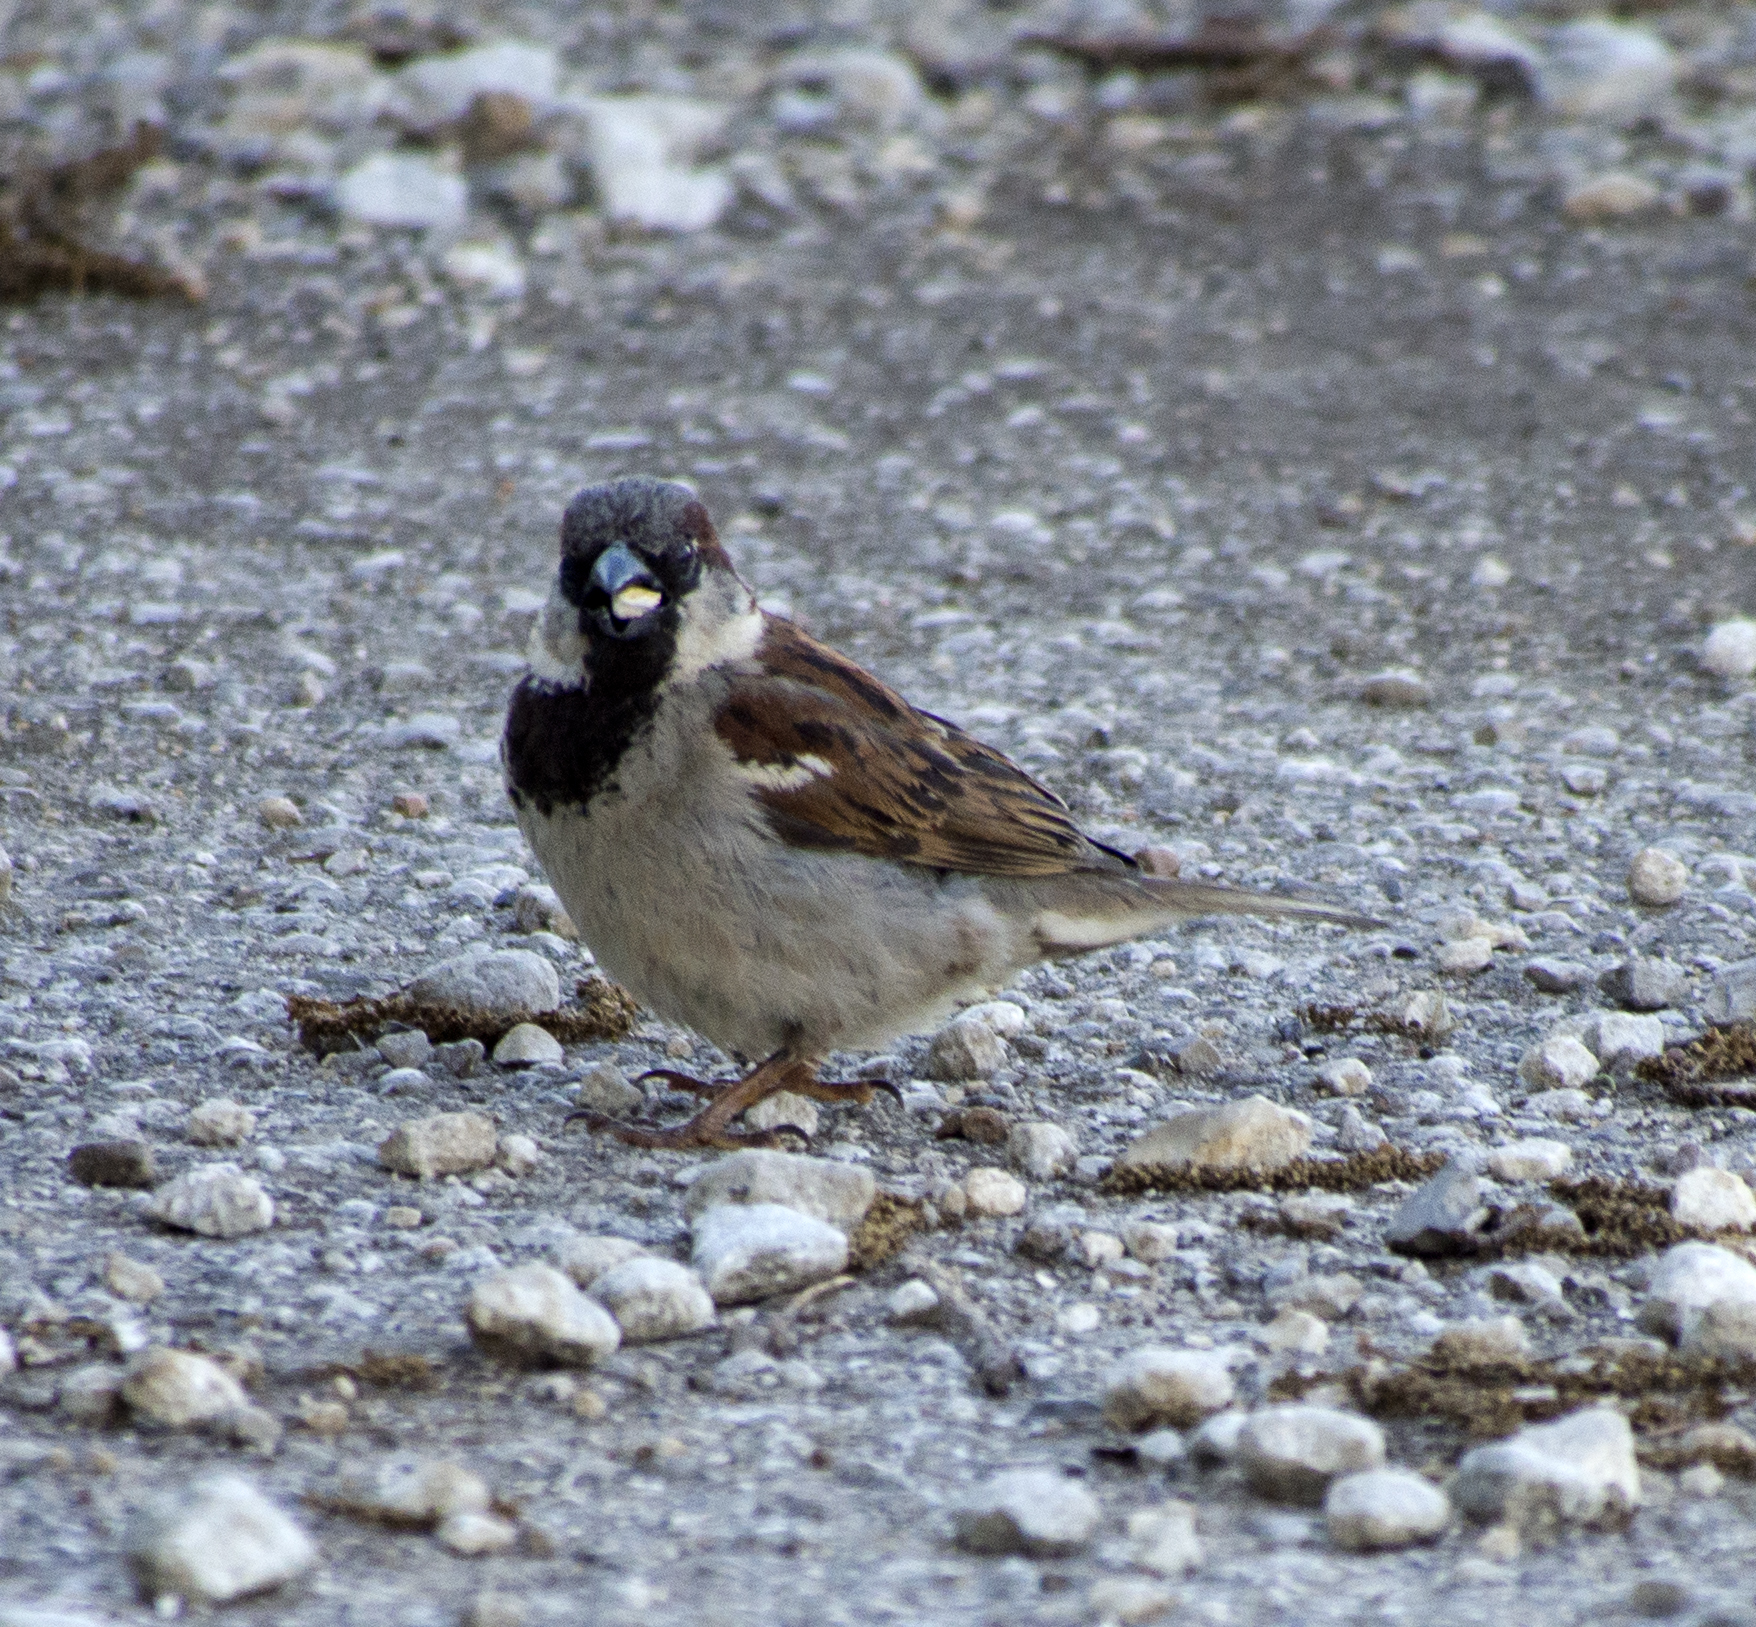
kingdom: Animalia
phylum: Chordata
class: Aves
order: Passeriformes
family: Passeridae
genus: Passer
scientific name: Passer domesticus
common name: House sparrow
